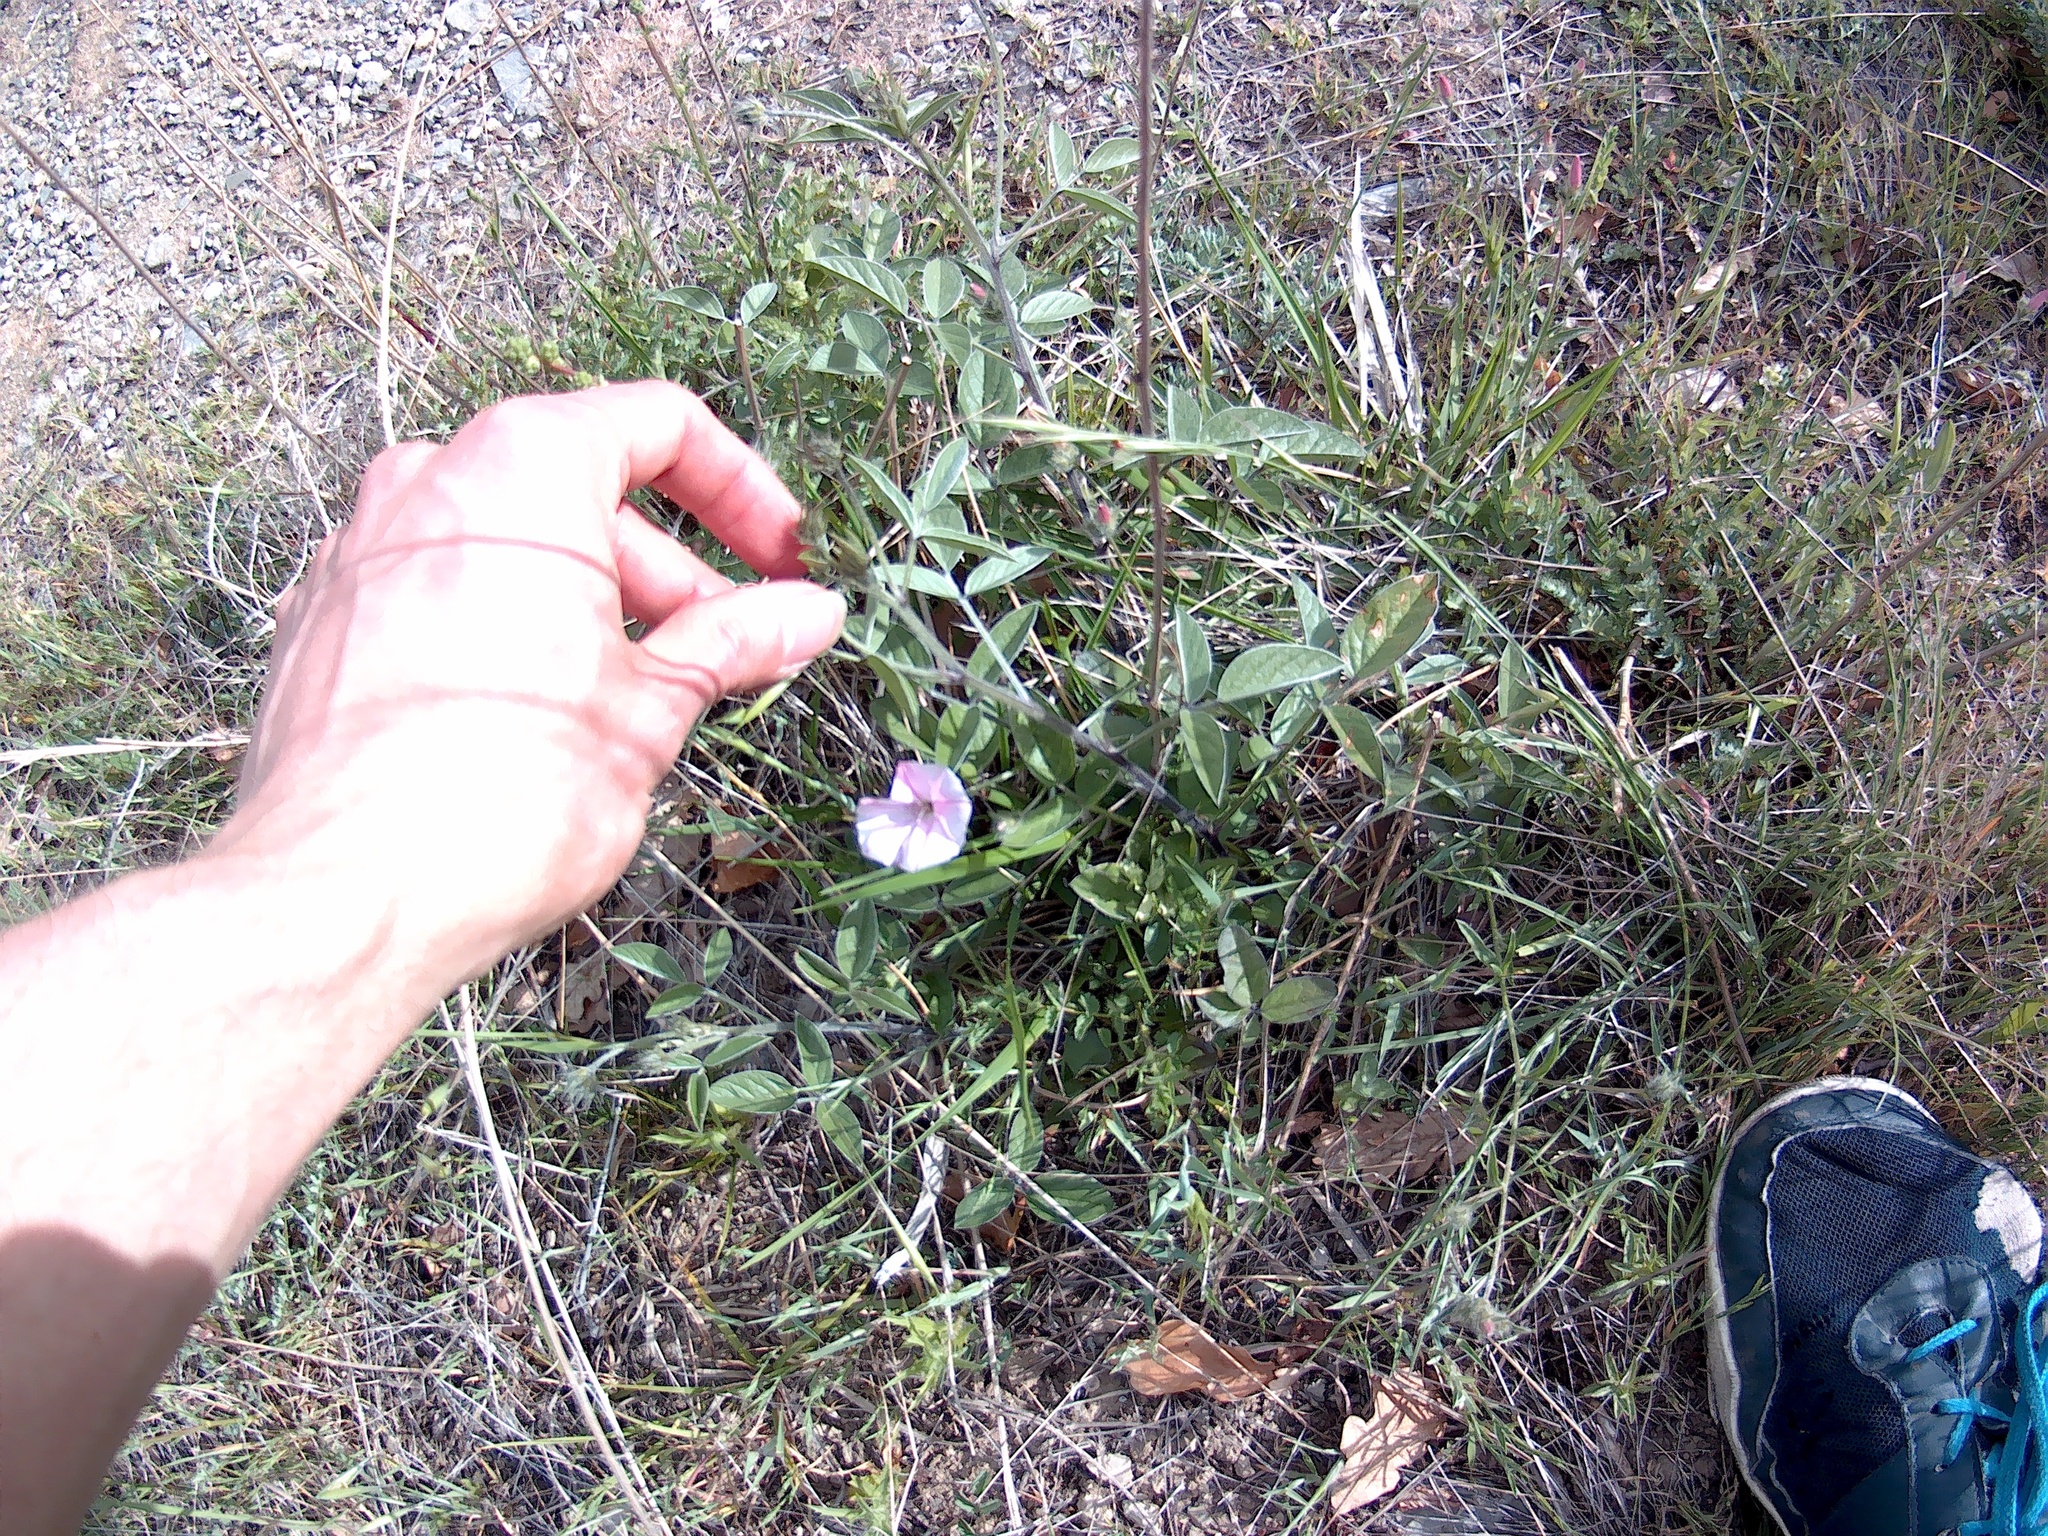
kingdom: Plantae
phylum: Tracheophyta
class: Magnoliopsida
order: Solanales
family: Convolvulaceae
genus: Convolvulus
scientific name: Convolvulus cantabrica
